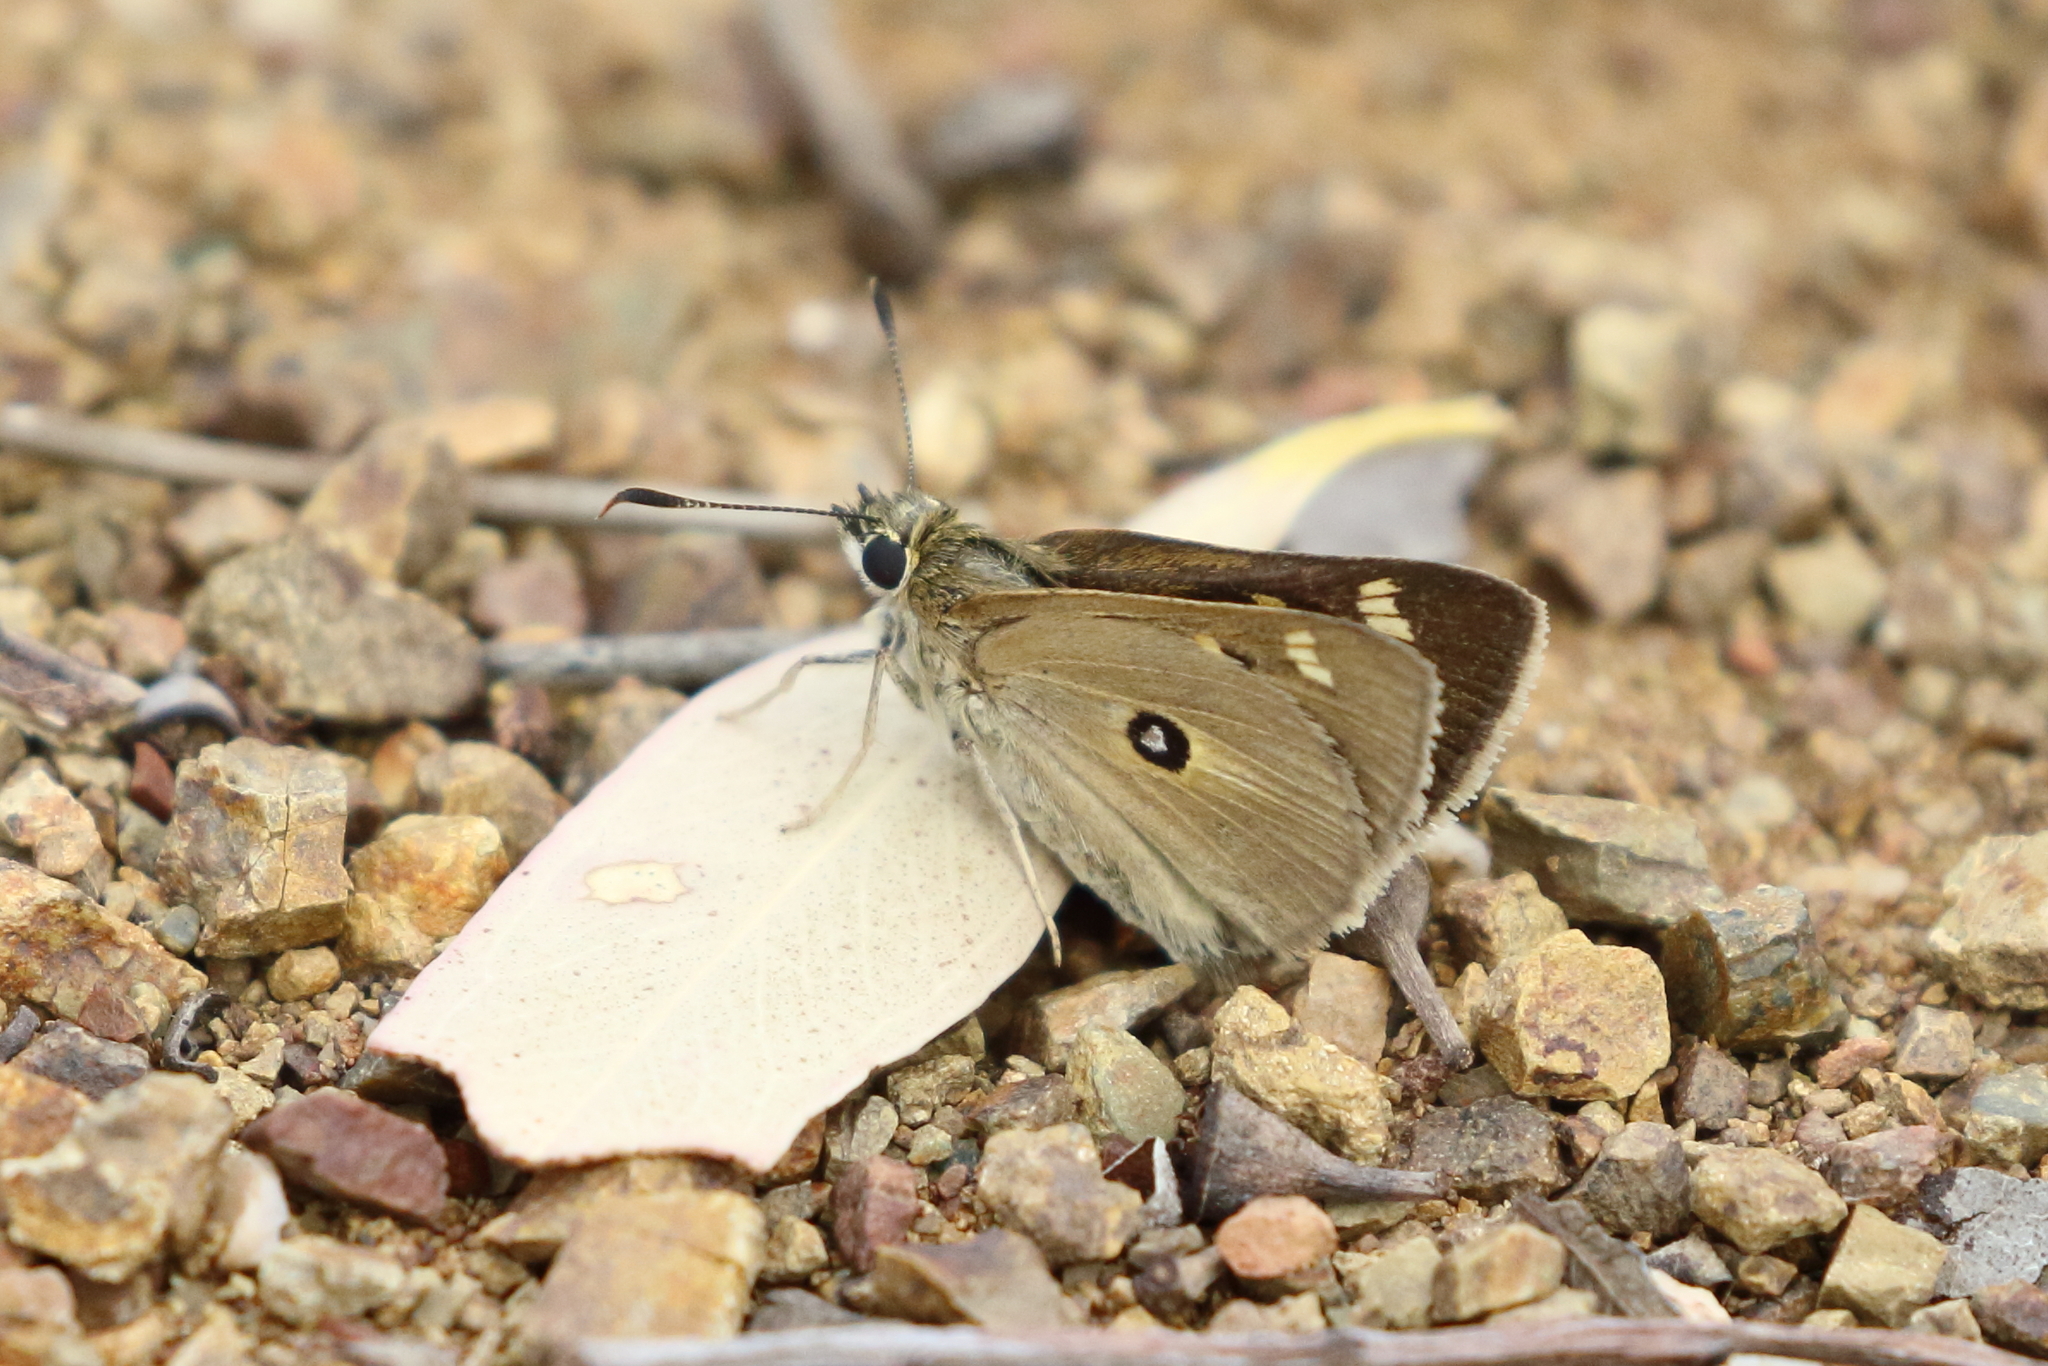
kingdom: Animalia
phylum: Arthropoda
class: Insecta
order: Lepidoptera
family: Hesperiidae
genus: Trapezites
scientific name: Trapezites petalia
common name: Black-ringed ochre
